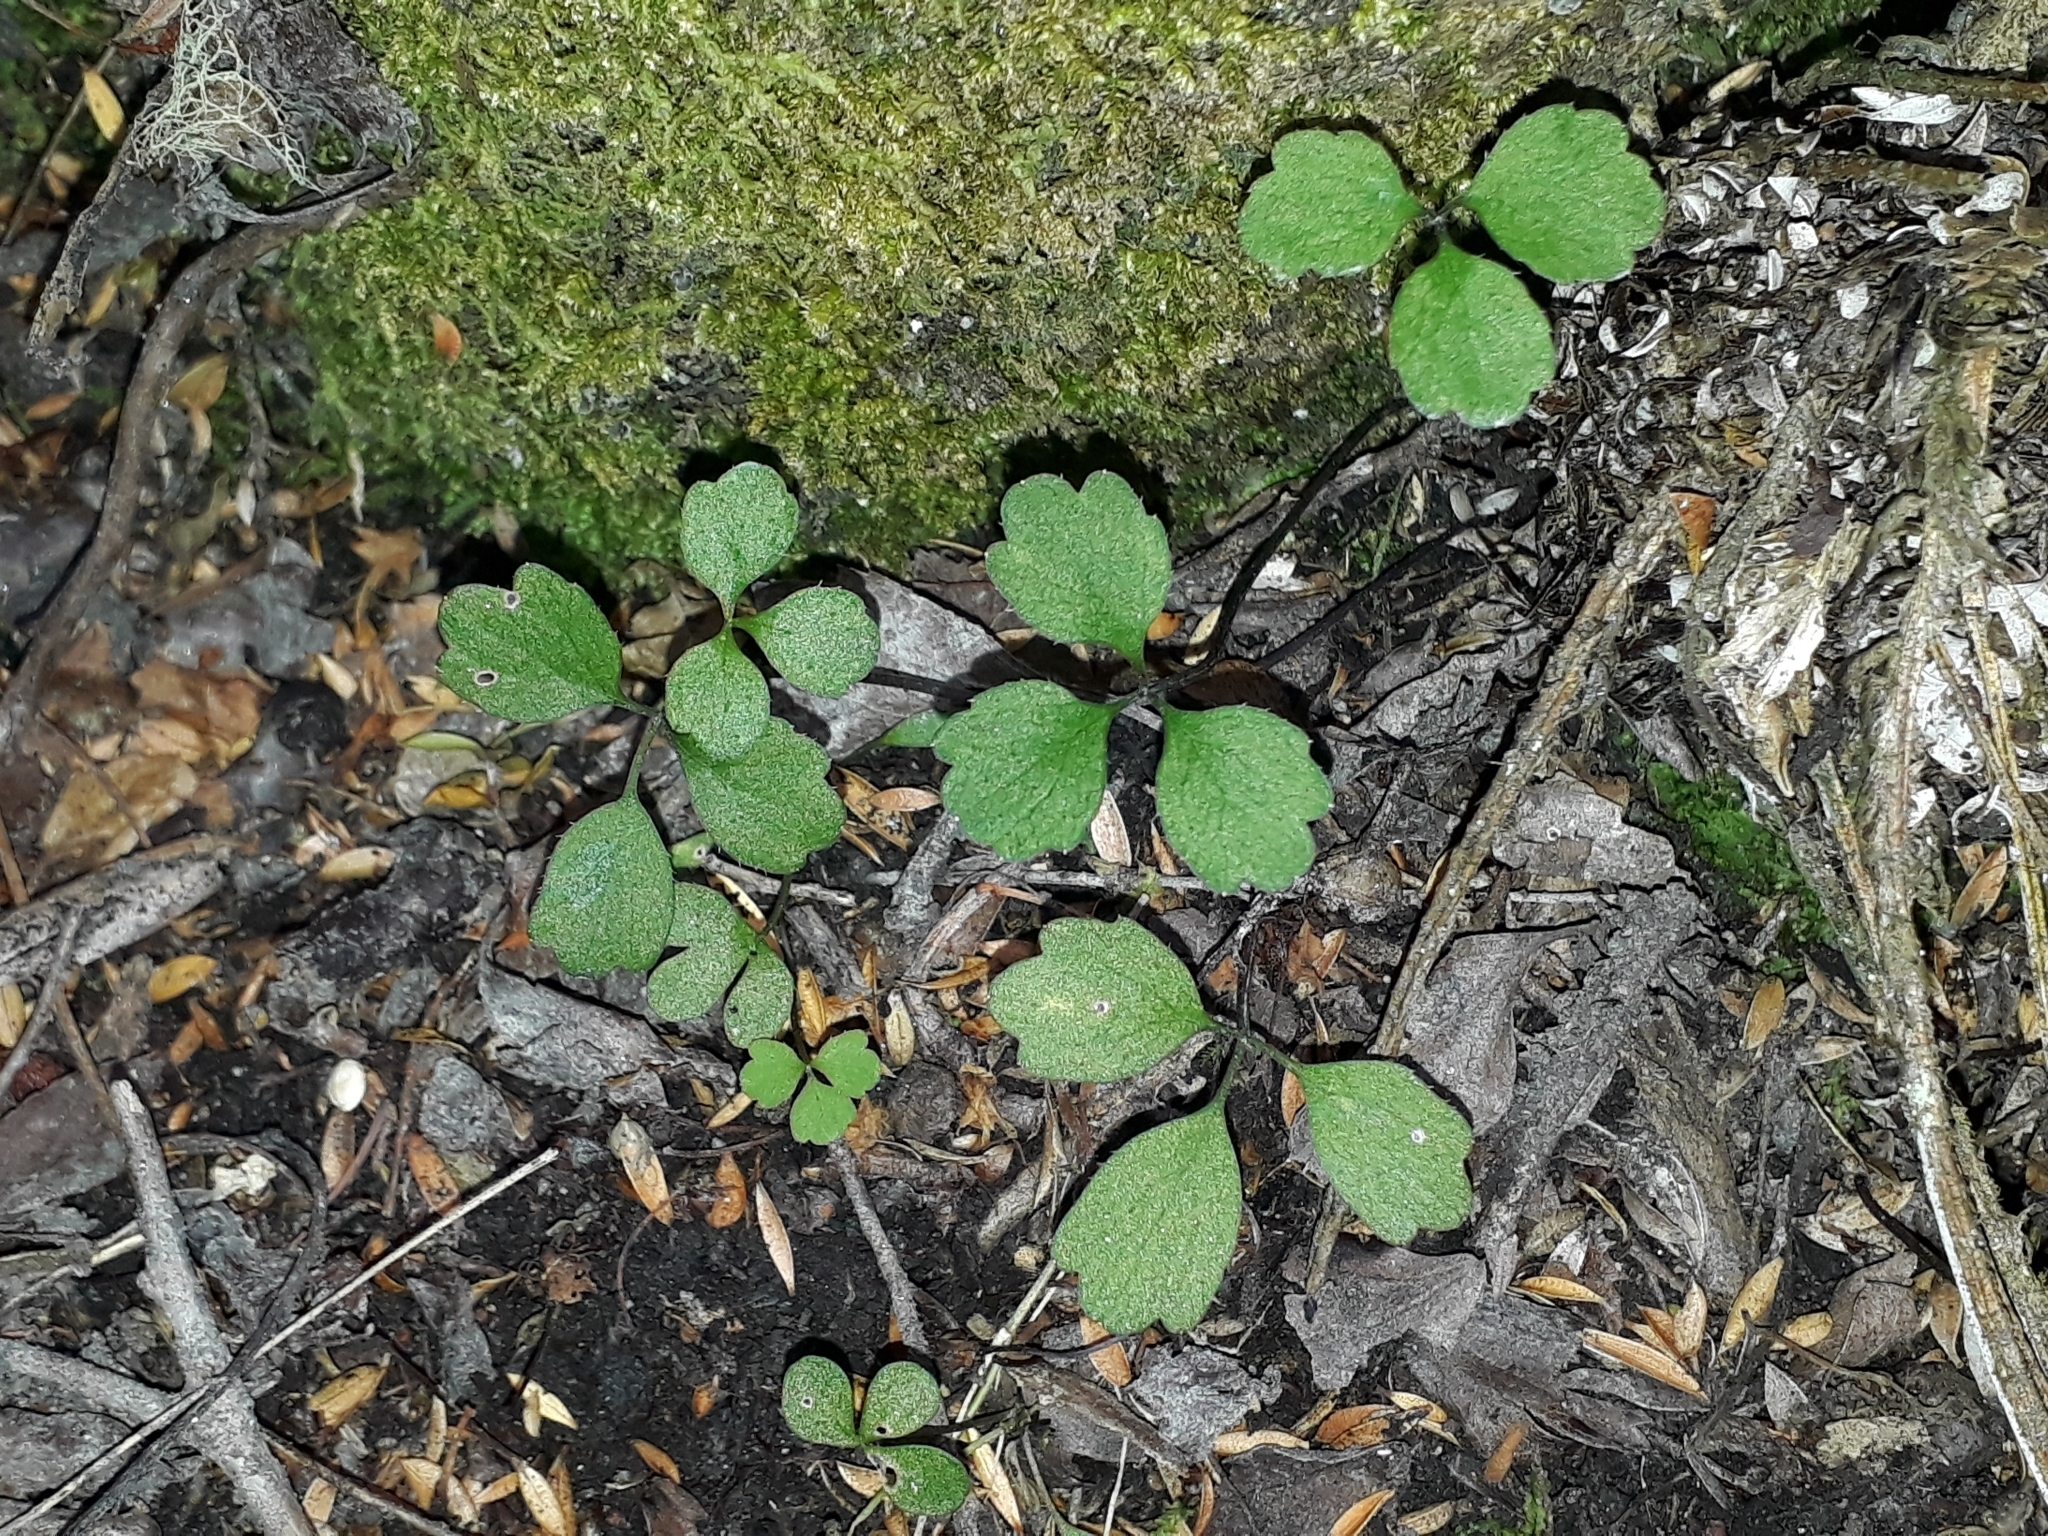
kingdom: Plantae
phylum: Tracheophyta
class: Magnoliopsida
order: Apiales
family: Apiaceae
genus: Azorella
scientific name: Azorella hookeri
